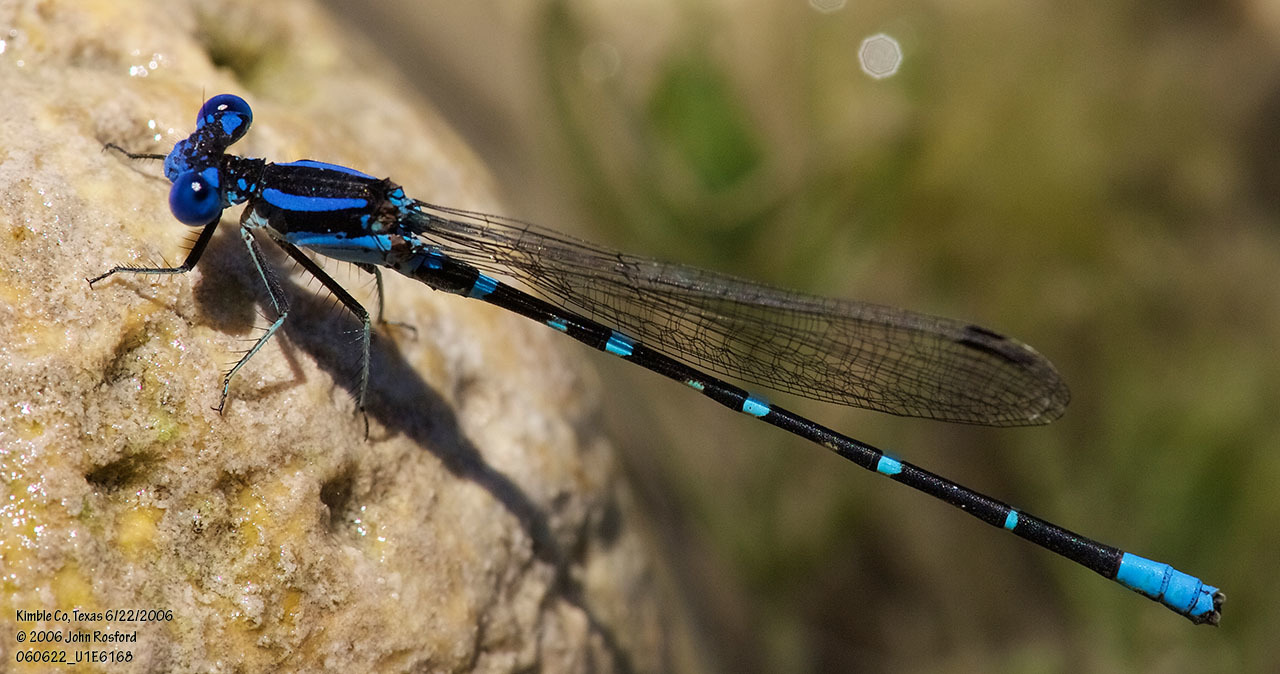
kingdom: Animalia
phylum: Arthropoda
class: Insecta
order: Odonata
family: Coenagrionidae
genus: Argia
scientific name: Argia sedula
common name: Blue-ringed dancer
